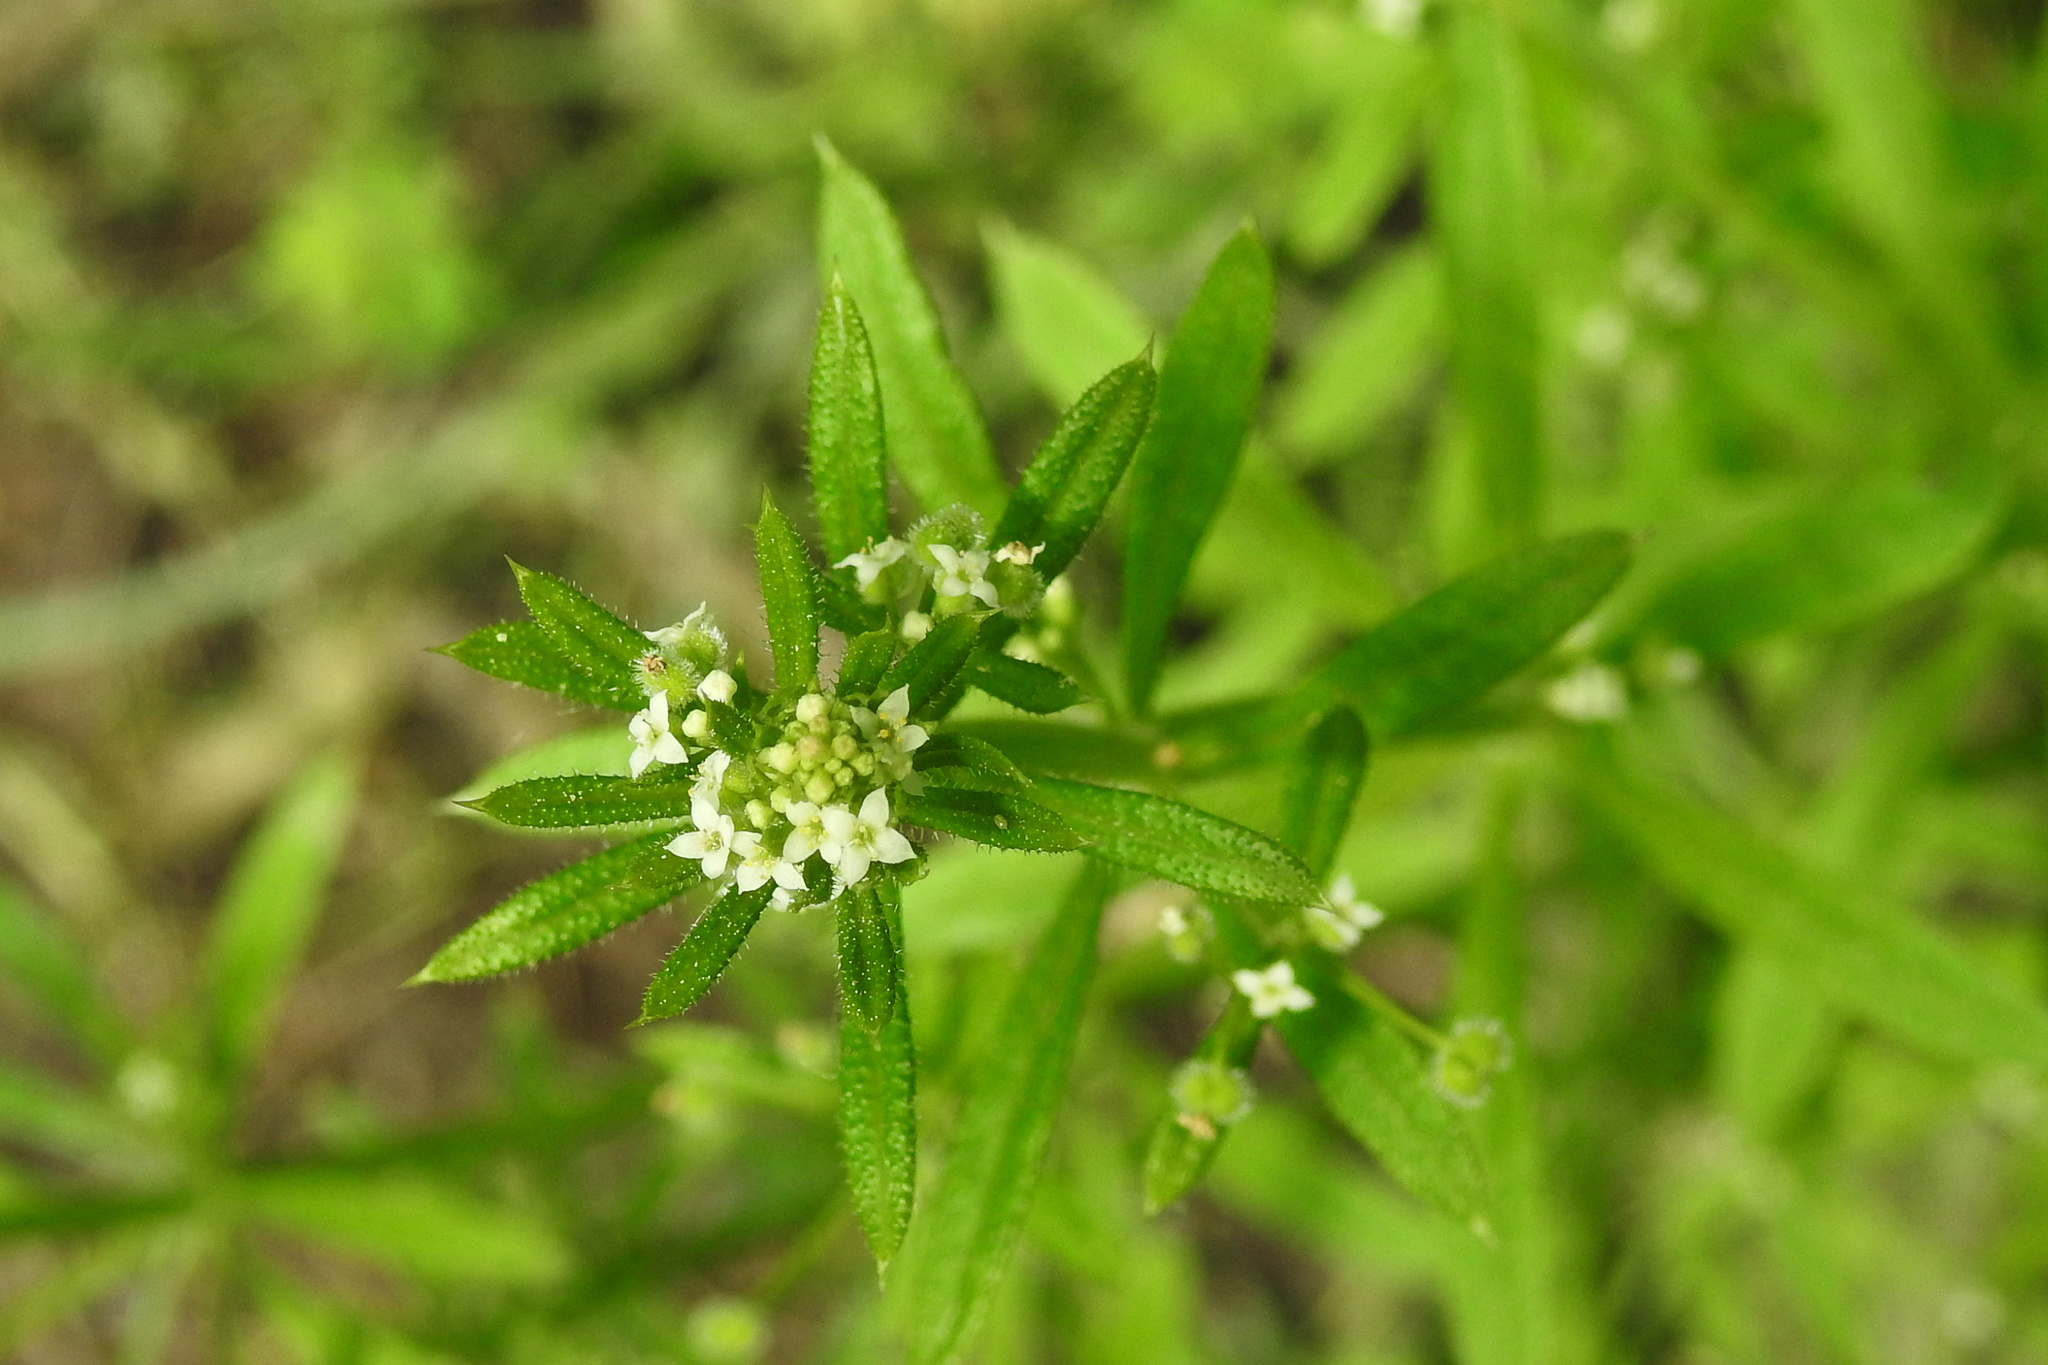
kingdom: Plantae
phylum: Tracheophyta
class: Magnoliopsida
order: Gentianales
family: Rubiaceae
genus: Galium
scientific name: Galium aparine
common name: Cleavers
